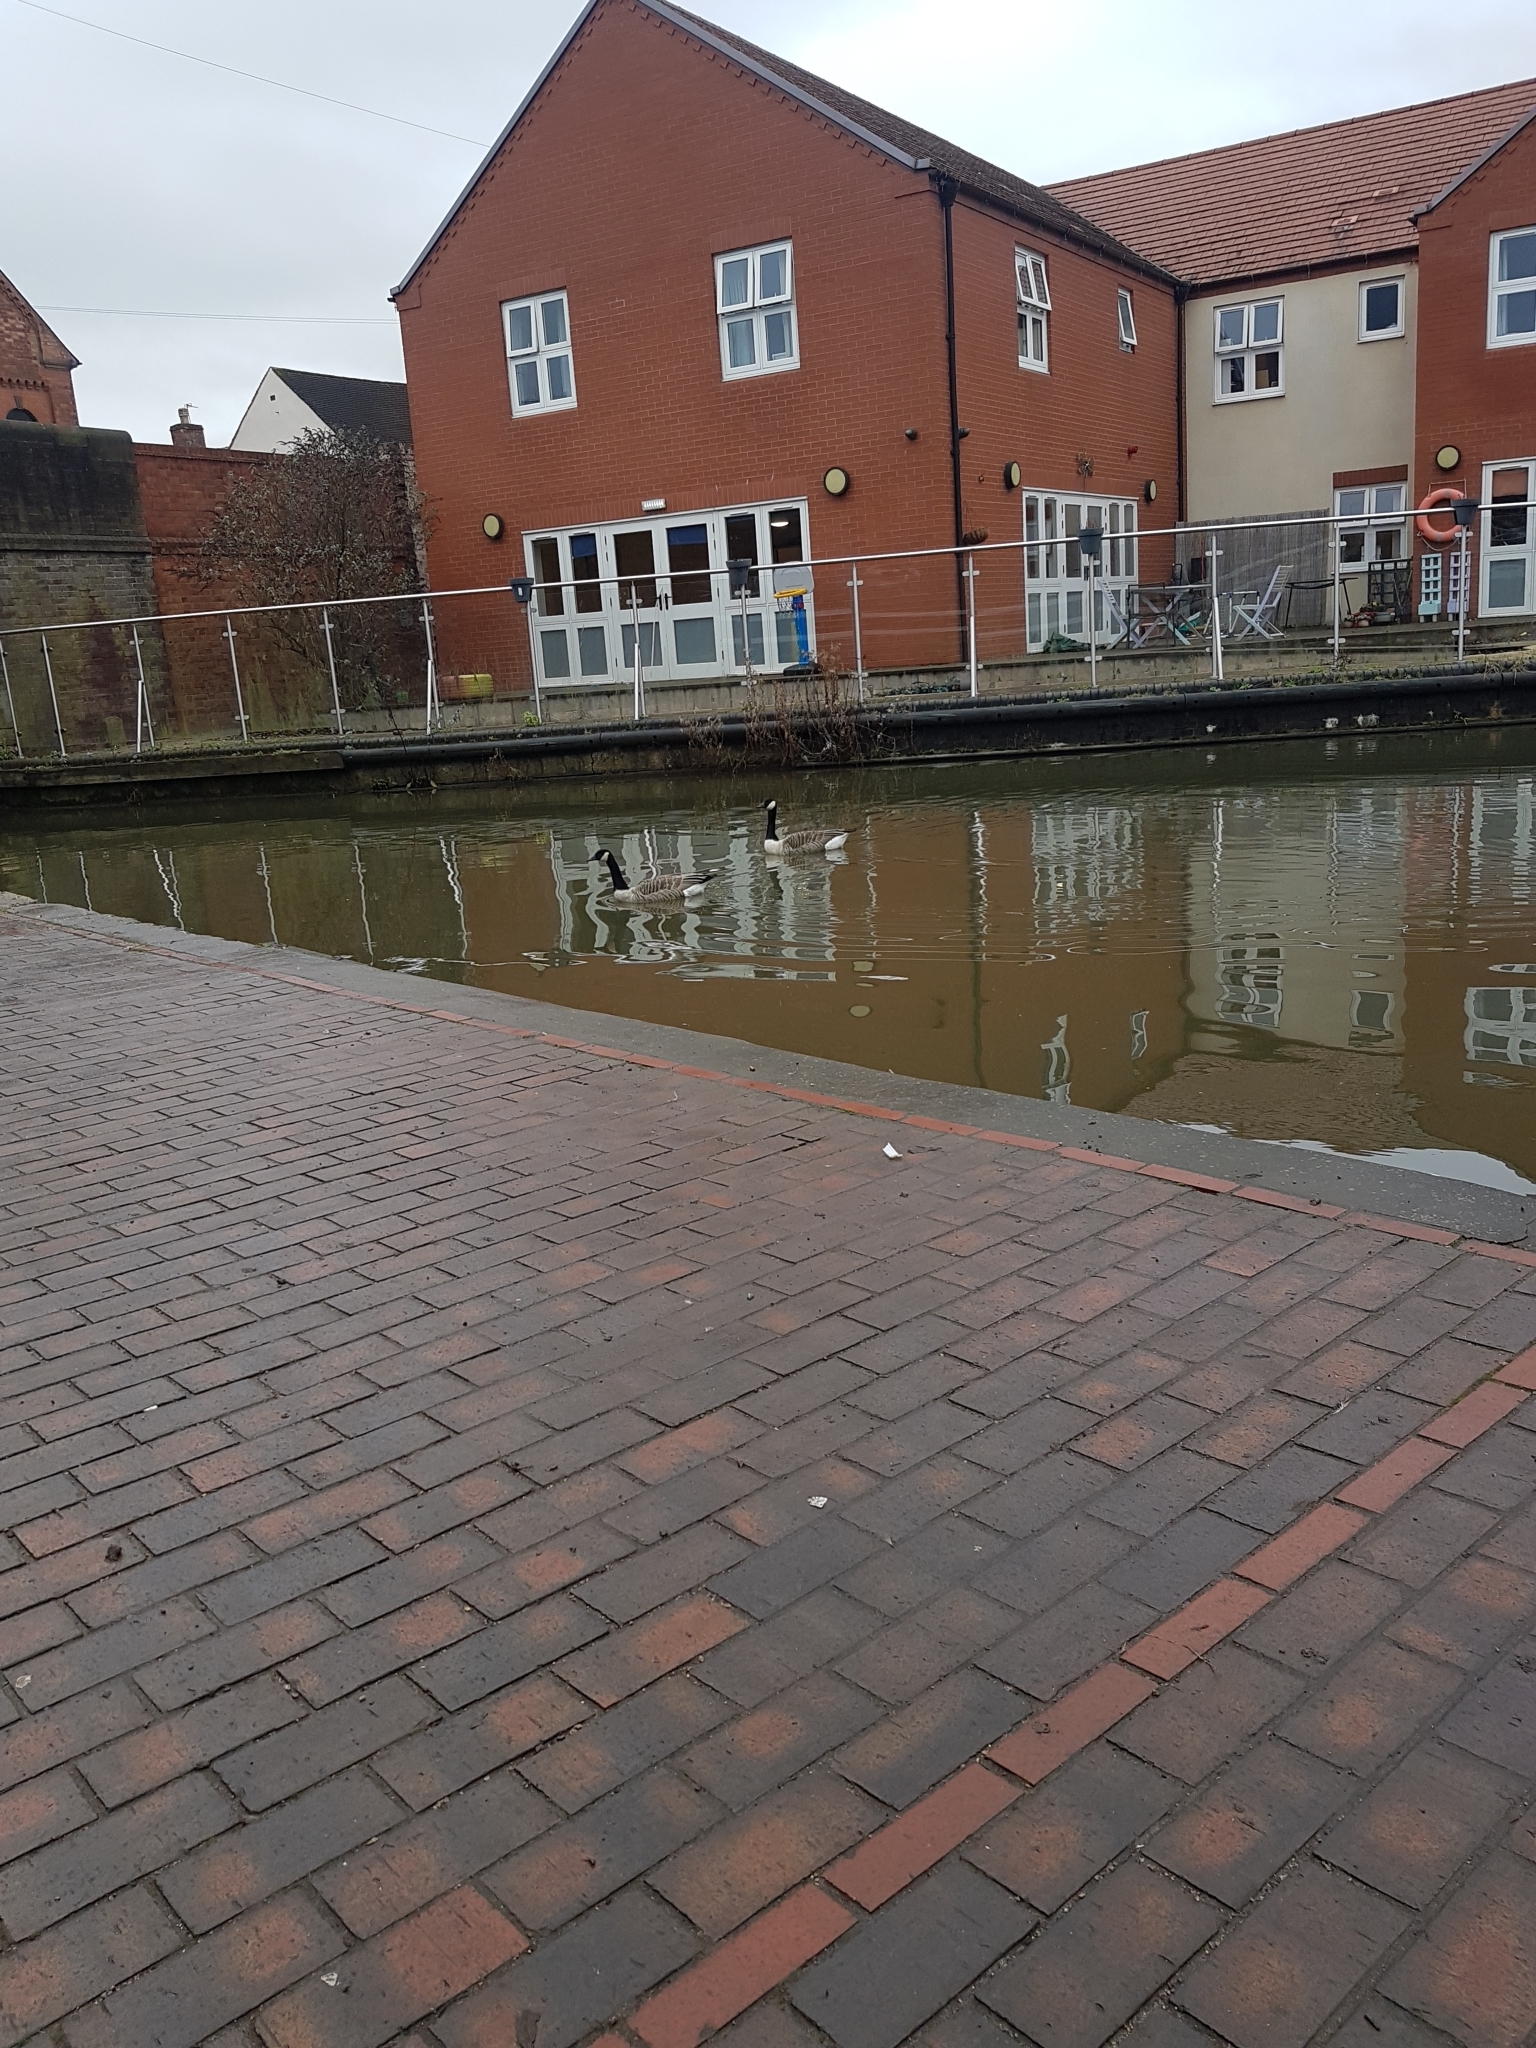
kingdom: Animalia
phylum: Chordata
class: Aves
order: Anseriformes
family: Anatidae
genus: Branta
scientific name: Branta canadensis
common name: Canada goose
